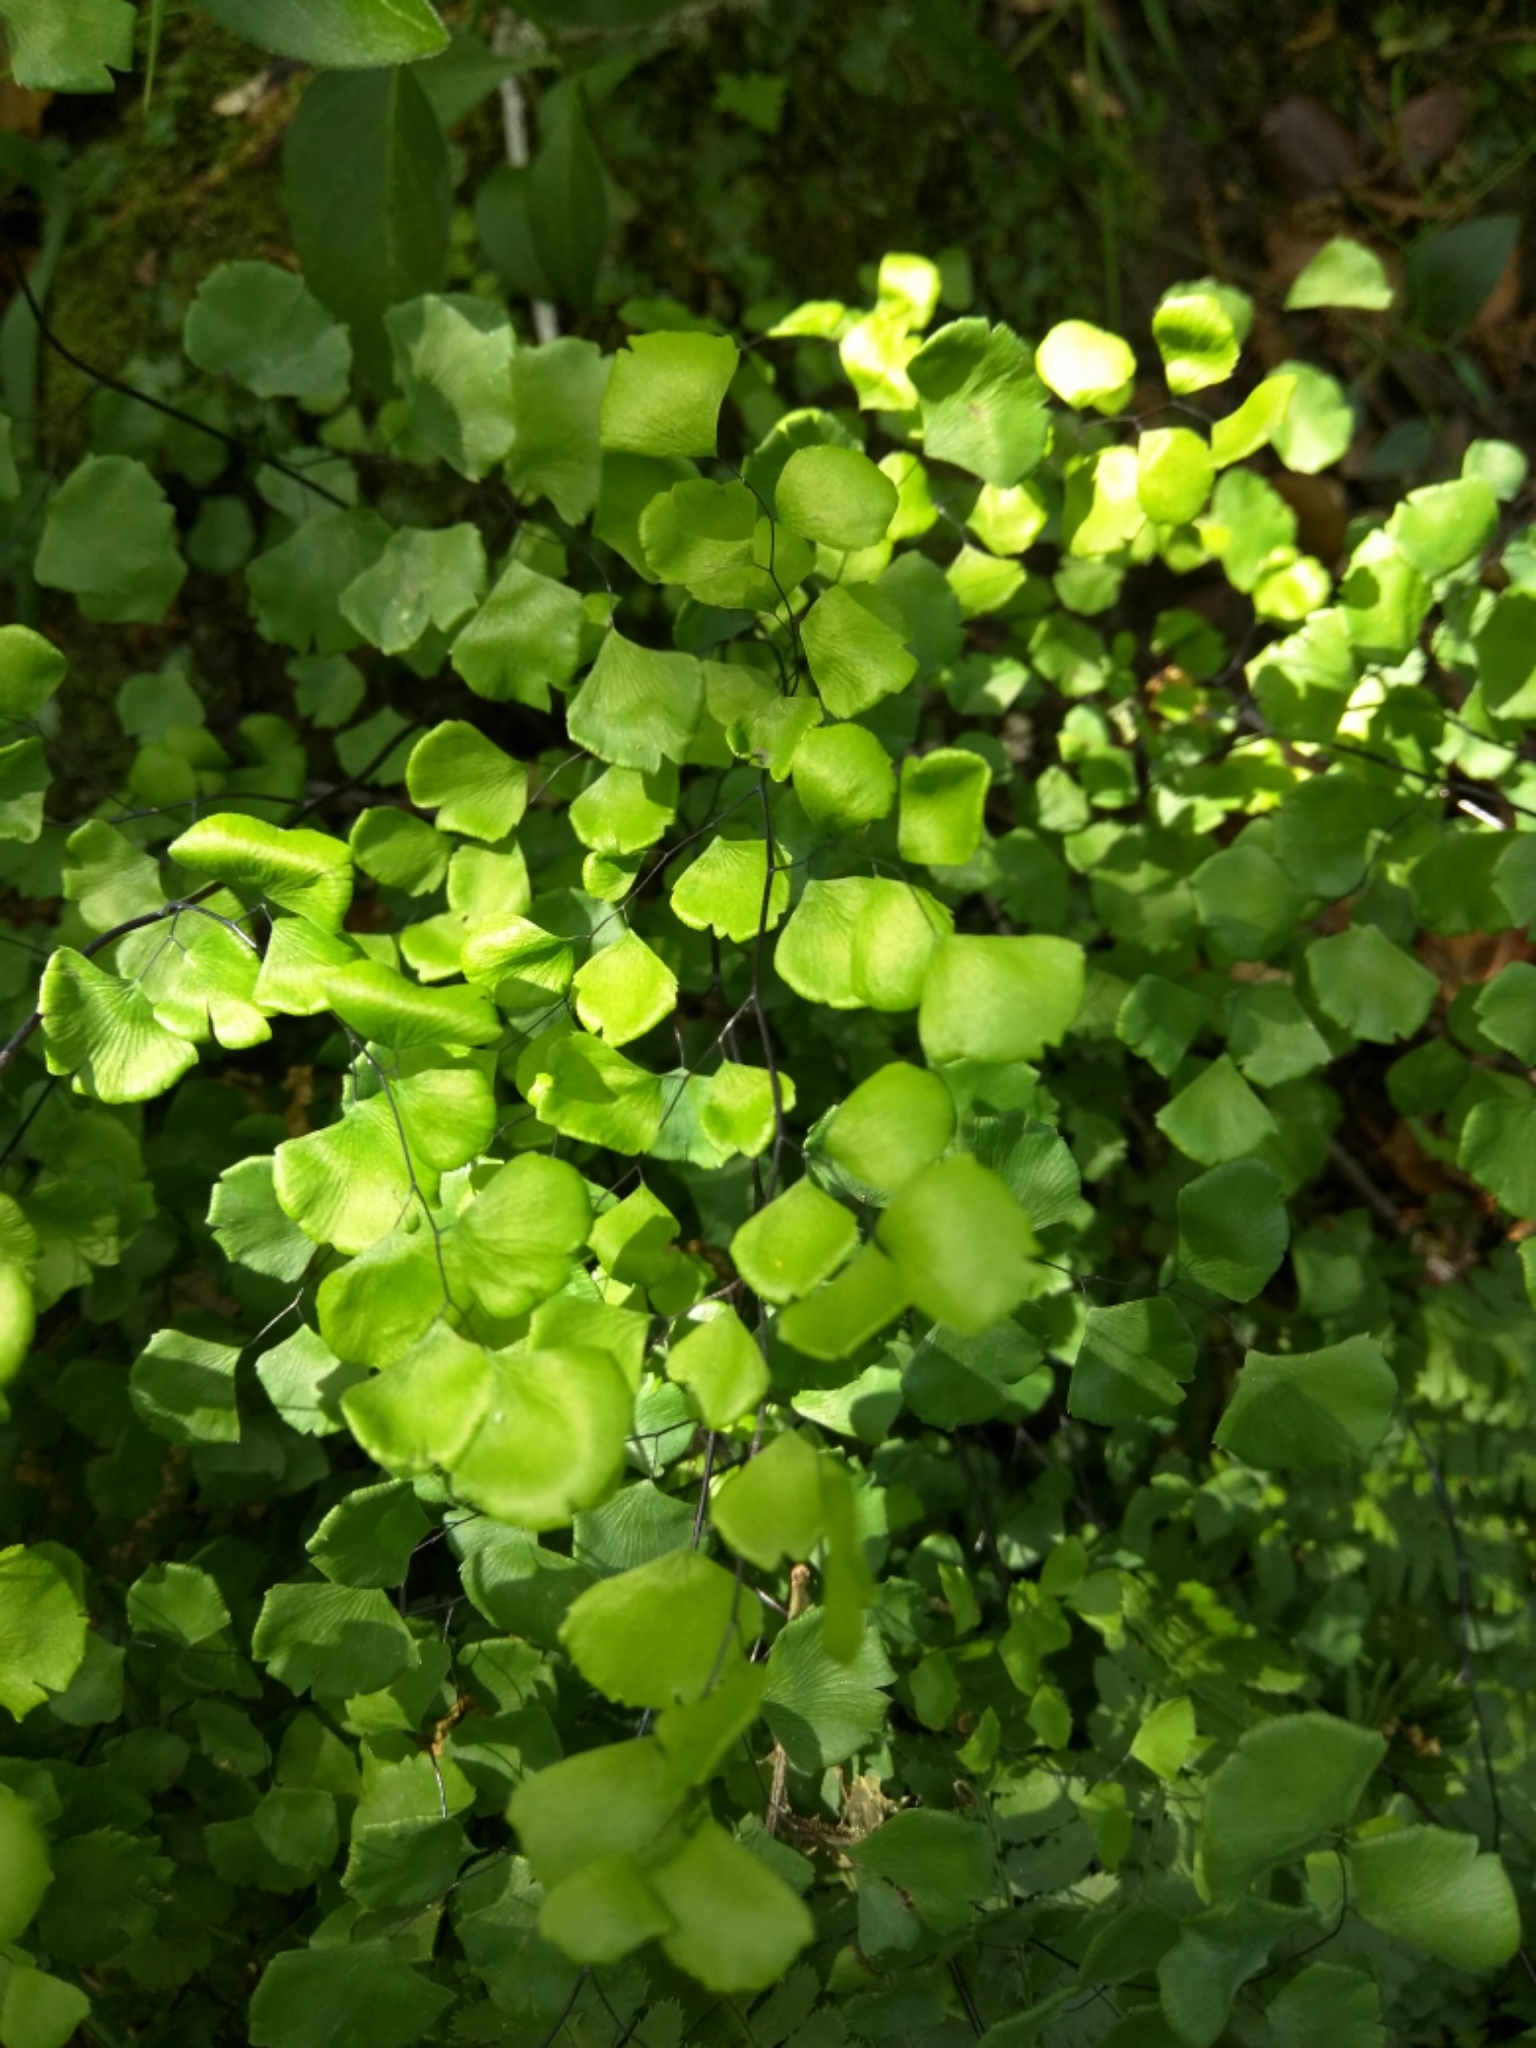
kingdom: Plantae
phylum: Tracheophyta
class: Polypodiopsida
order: Polypodiales
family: Pteridaceae
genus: Adiantum
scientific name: Adiantum jordanii
